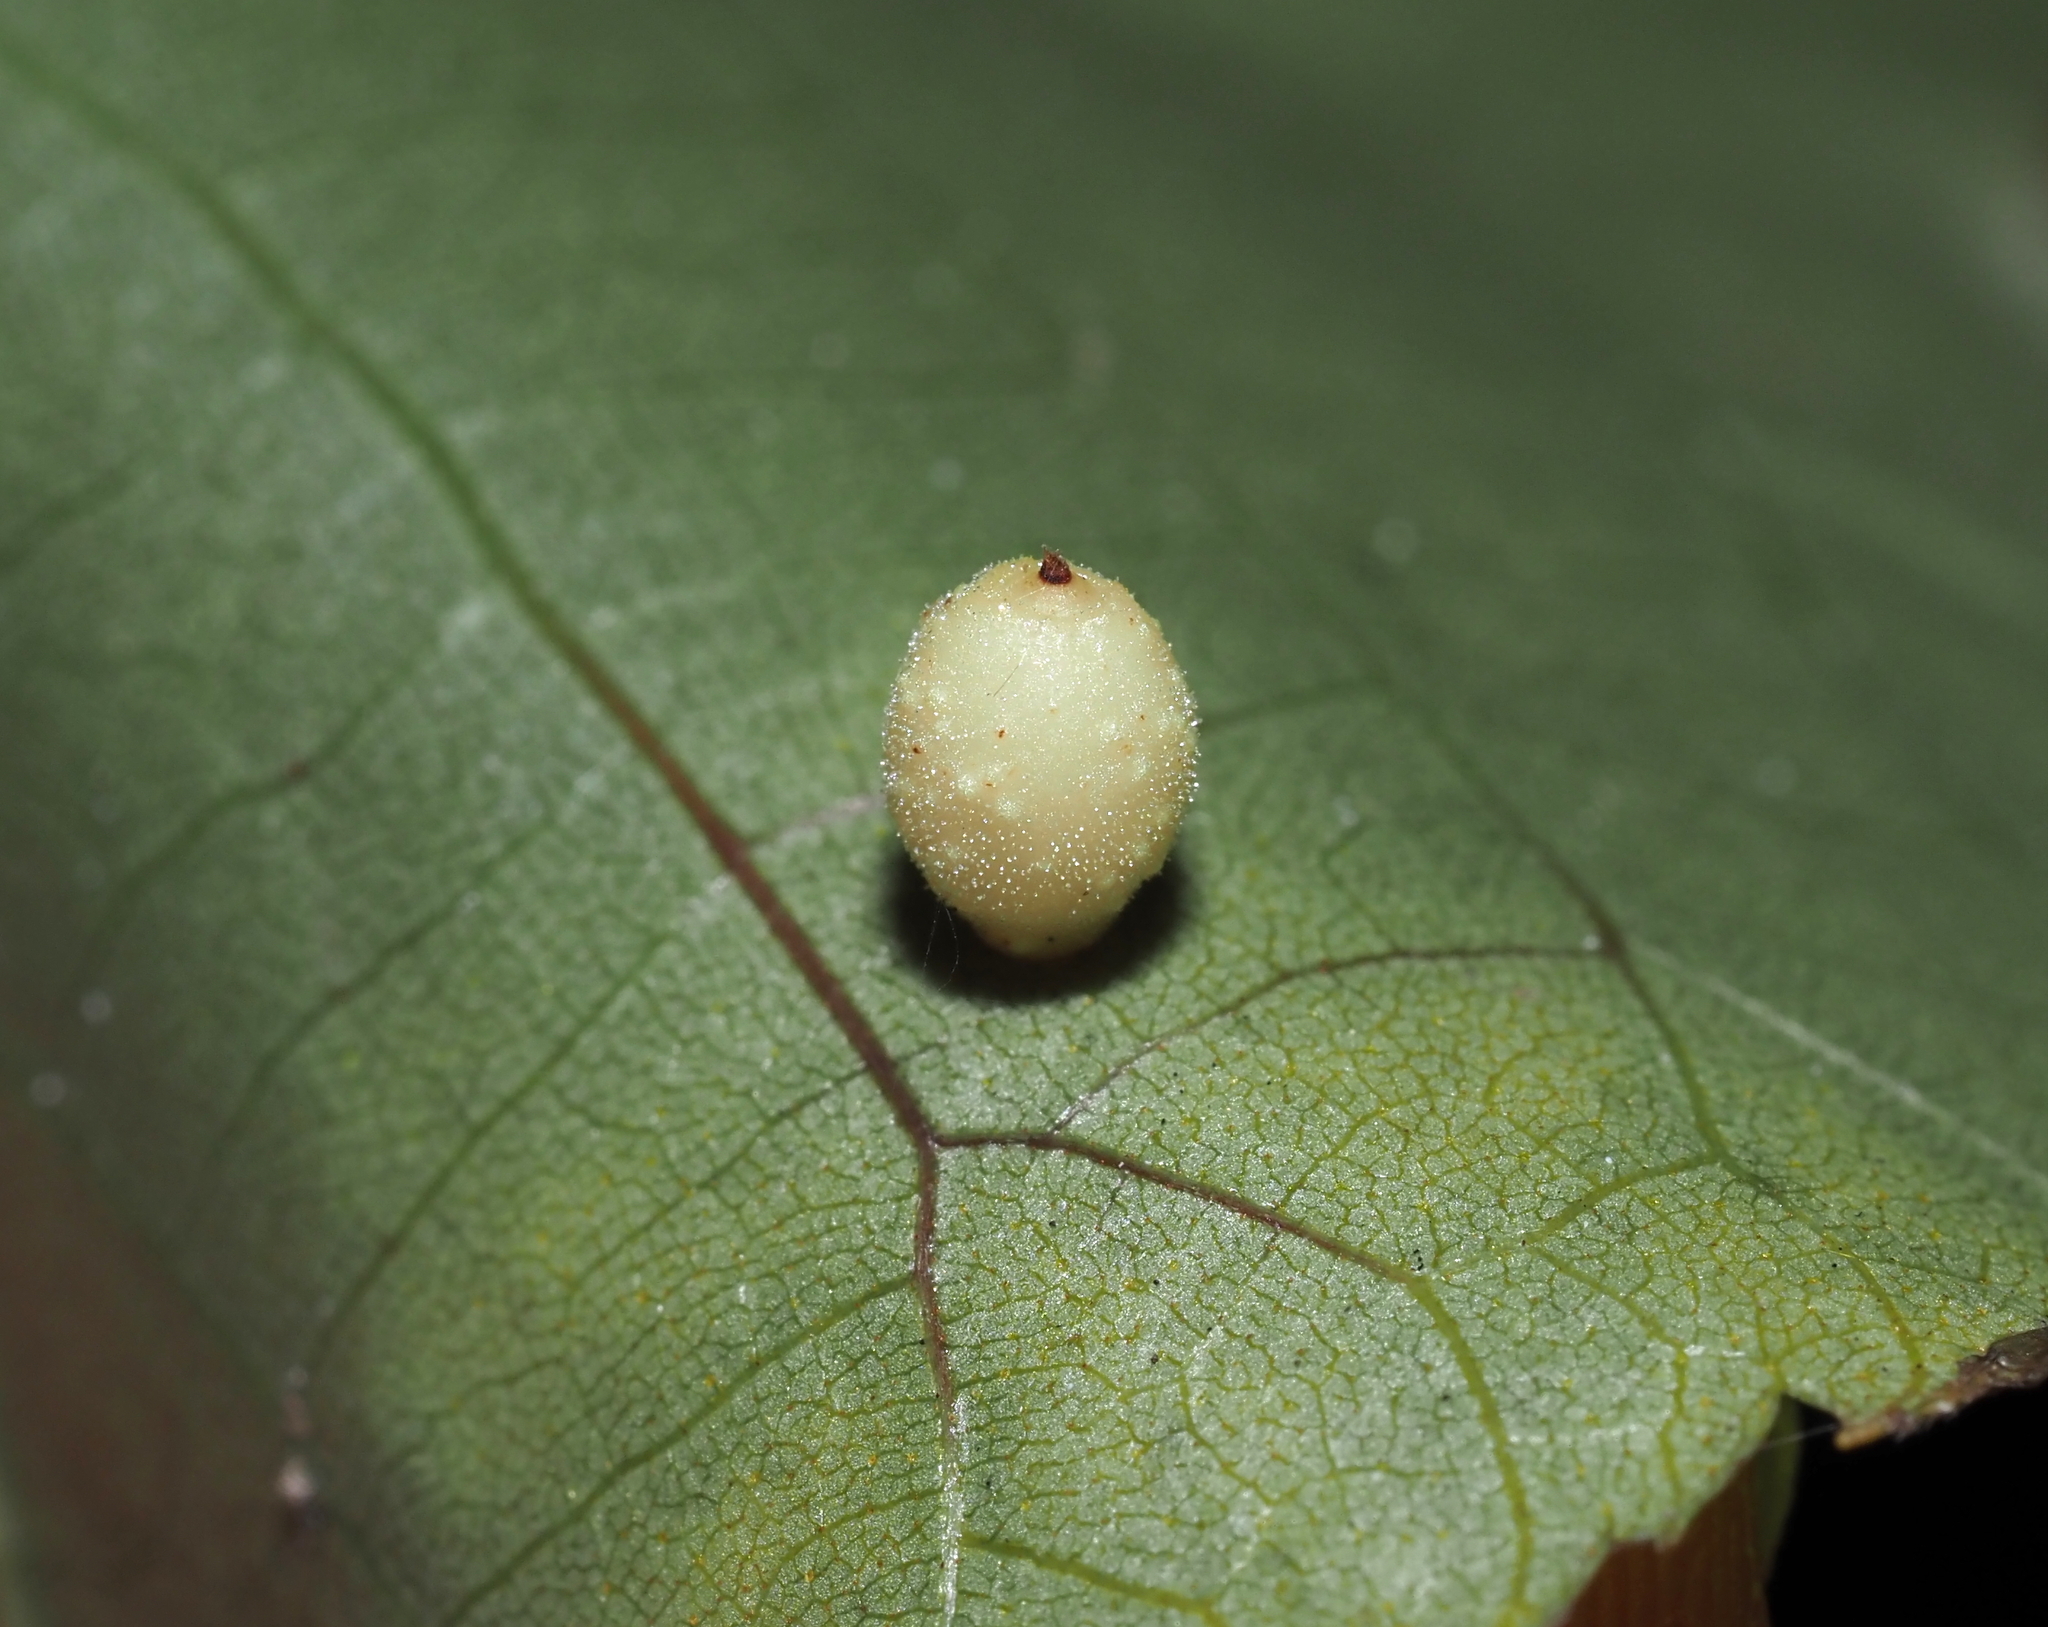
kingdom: Animalia
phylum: Arthropoda
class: Insecta
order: Diptera
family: Cecidomyiidae
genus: Caryomyia
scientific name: Caryomyia tuberidolium
